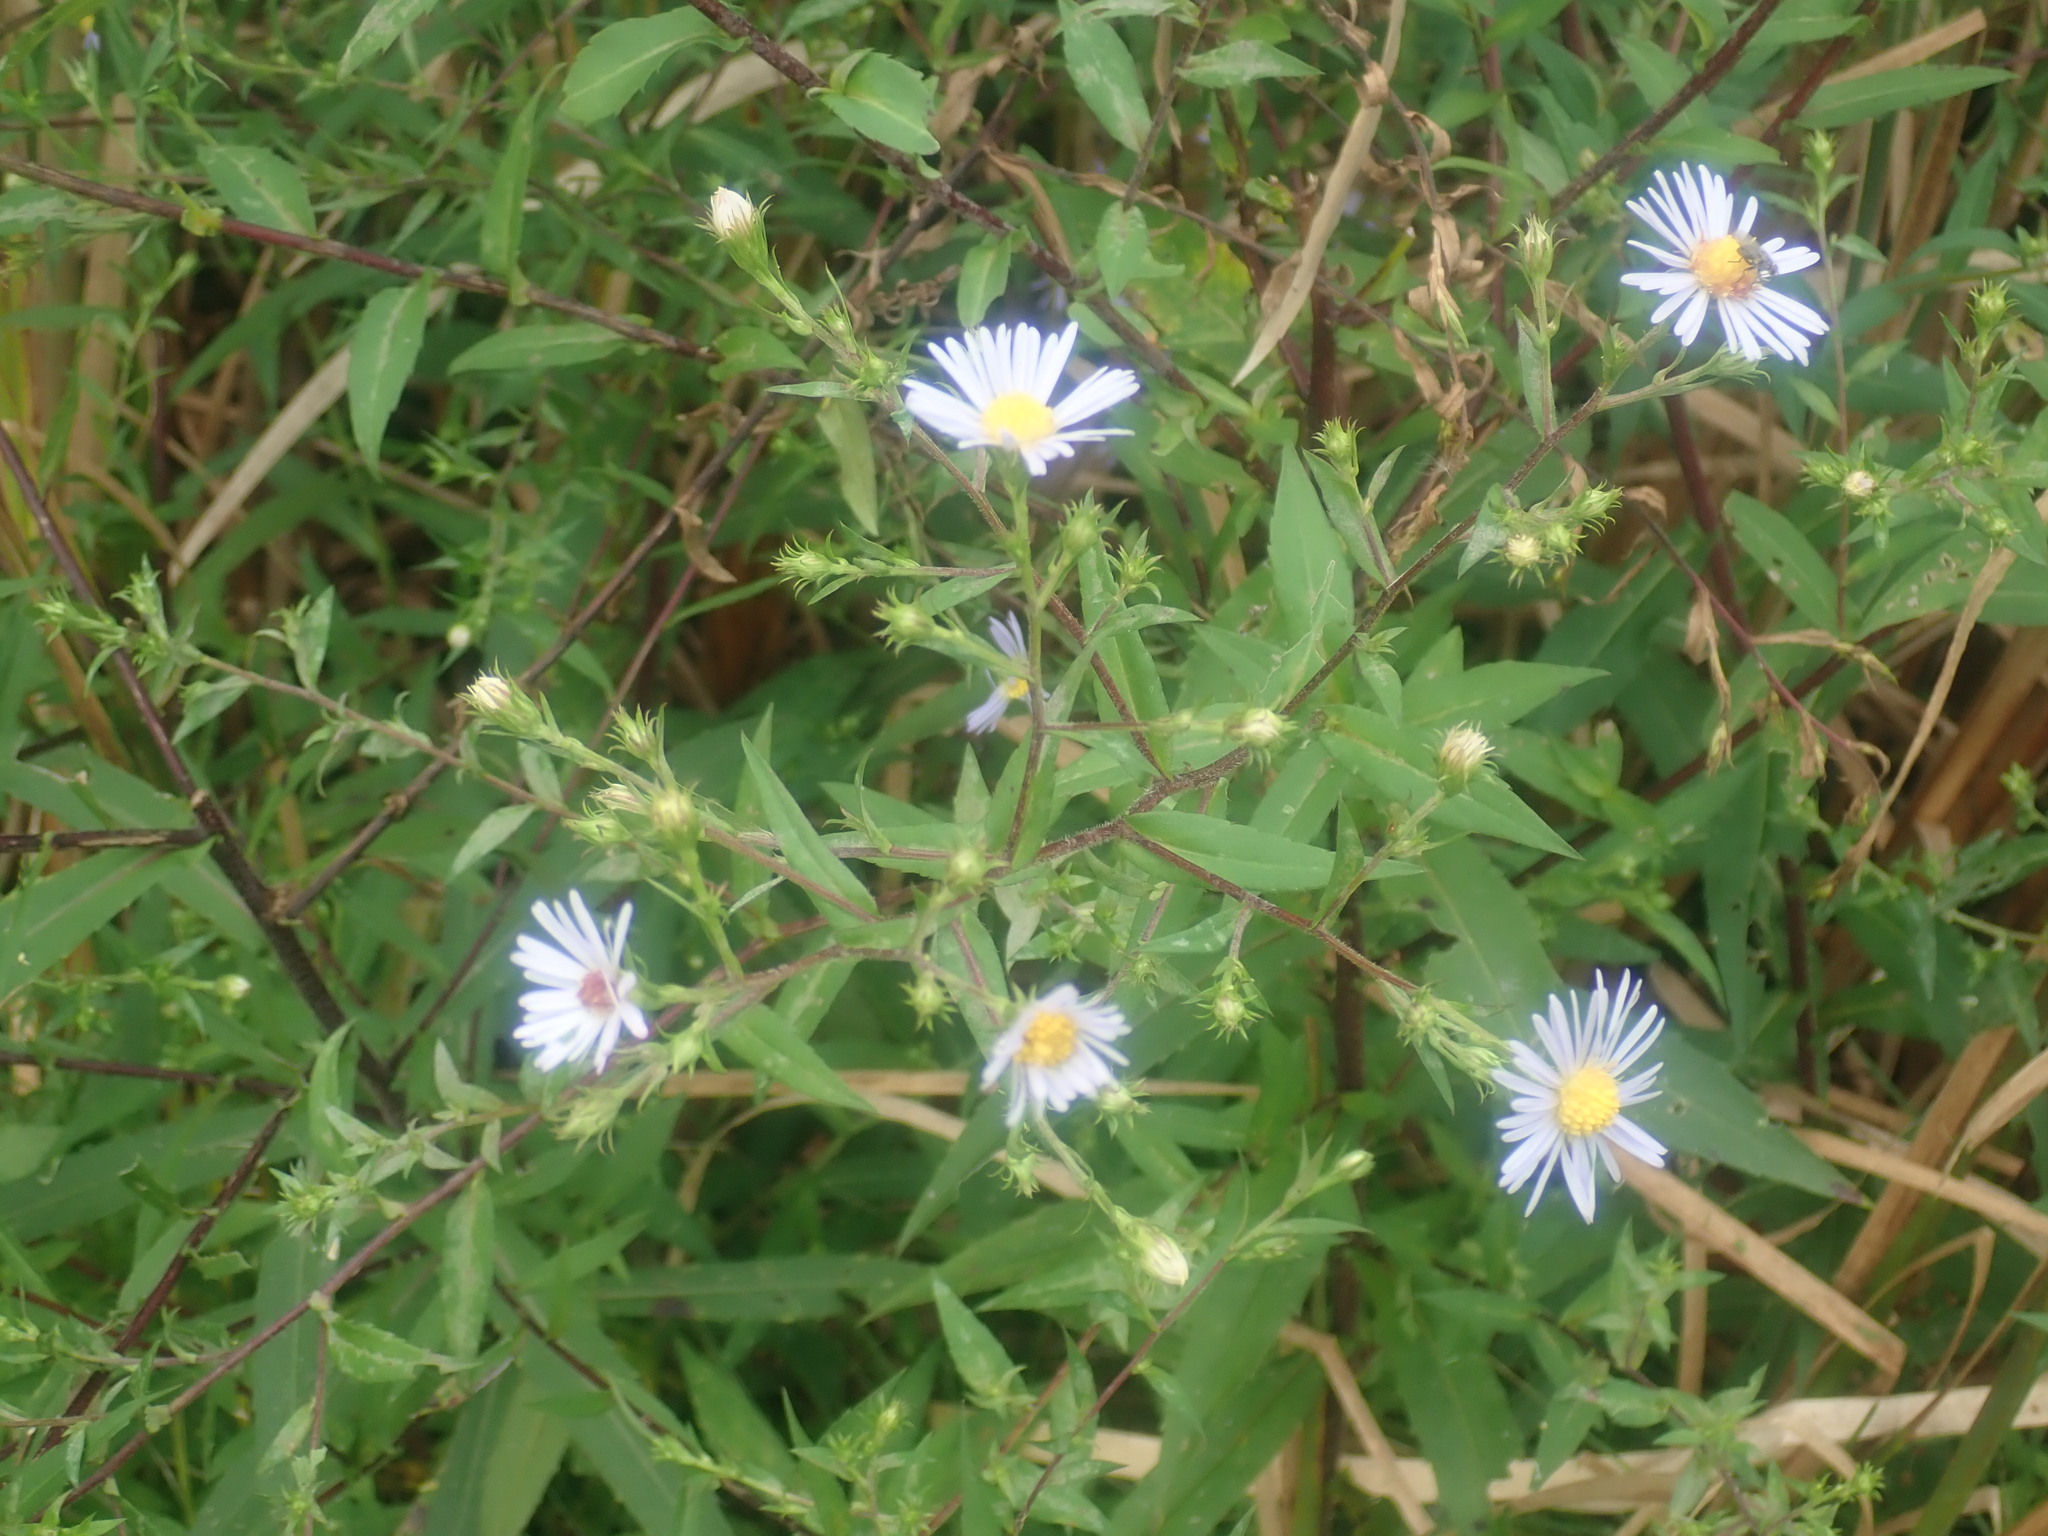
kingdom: Plantae
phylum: Tracheophyta
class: Magnoliopsida
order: Asterales
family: Asteraceae
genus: Symphyotrichum
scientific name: Symphyotrichum puniceum
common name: Bog aster
